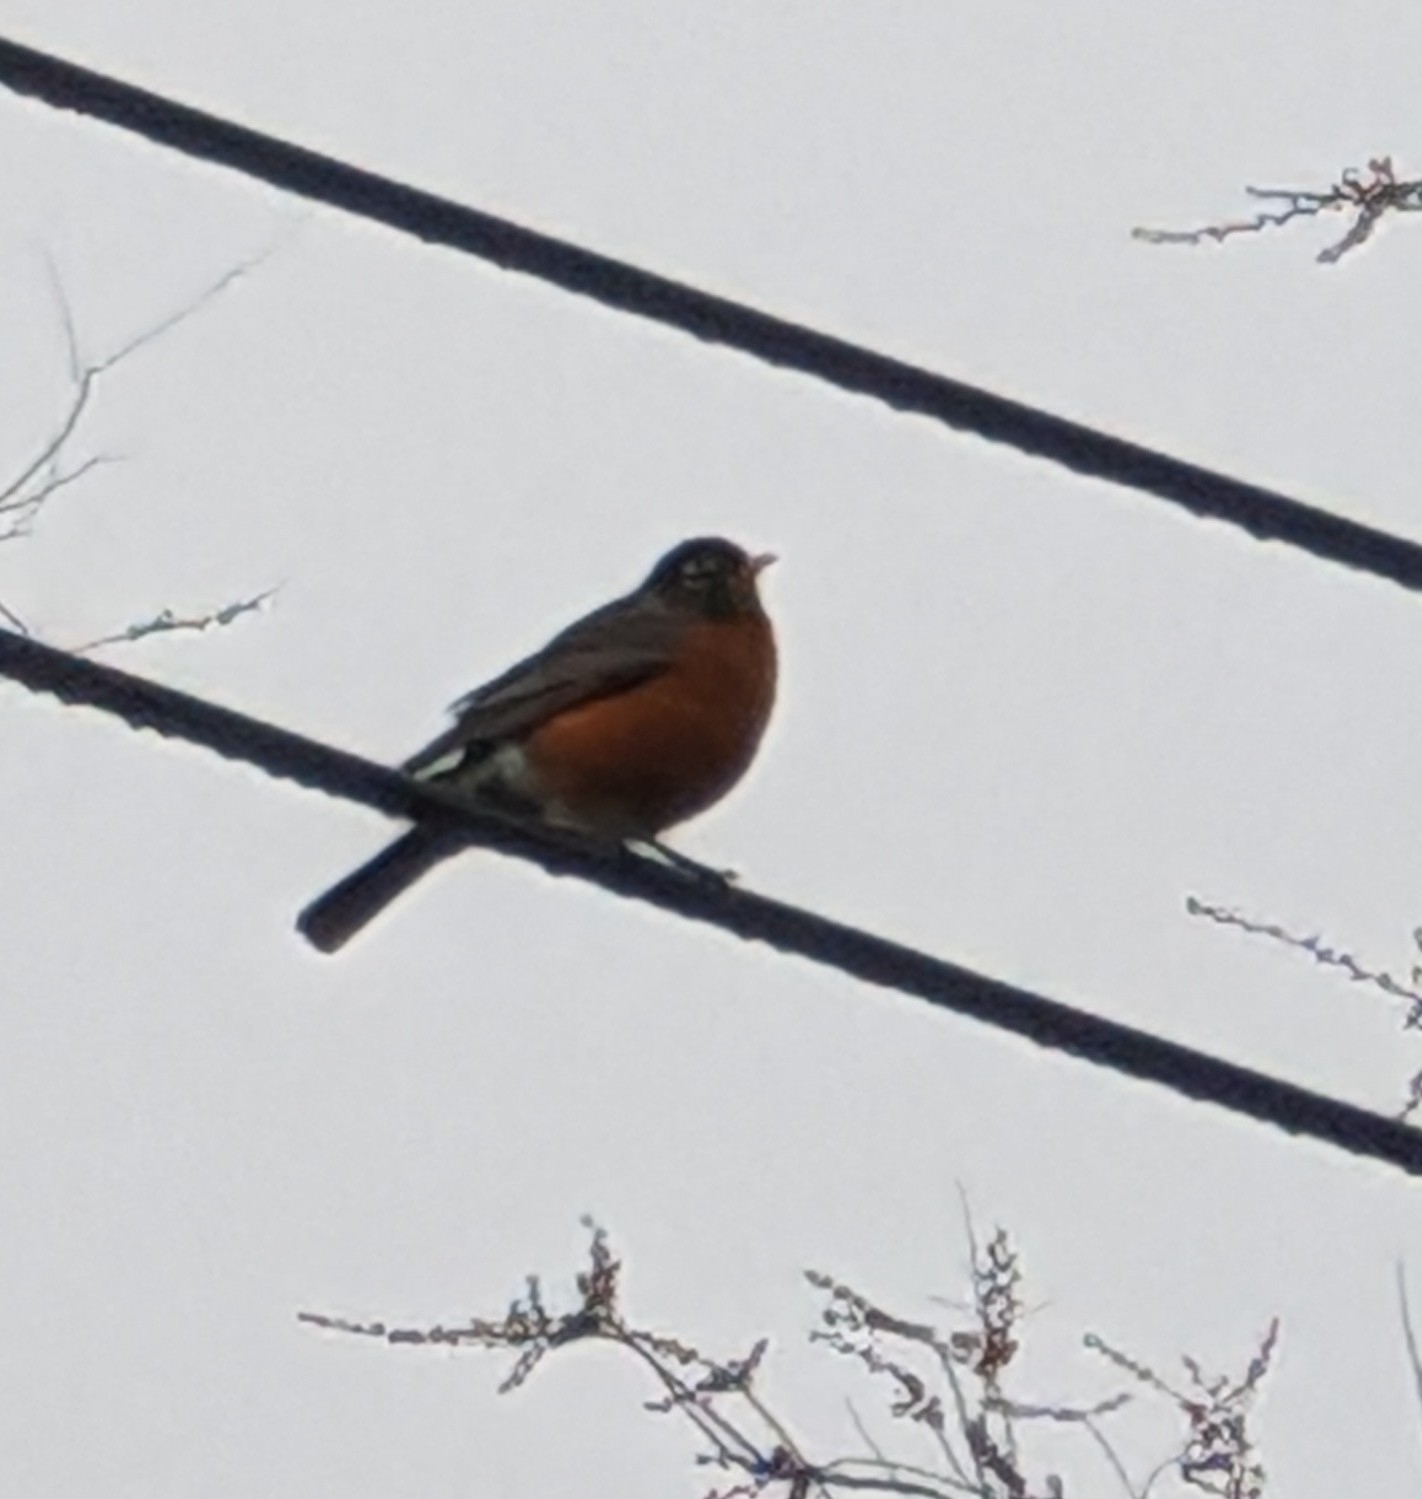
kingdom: Animalia
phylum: Chordata
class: Aves
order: Passeriformes
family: Turdidae
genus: Turdus
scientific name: Turdus migratorius
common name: American robin
